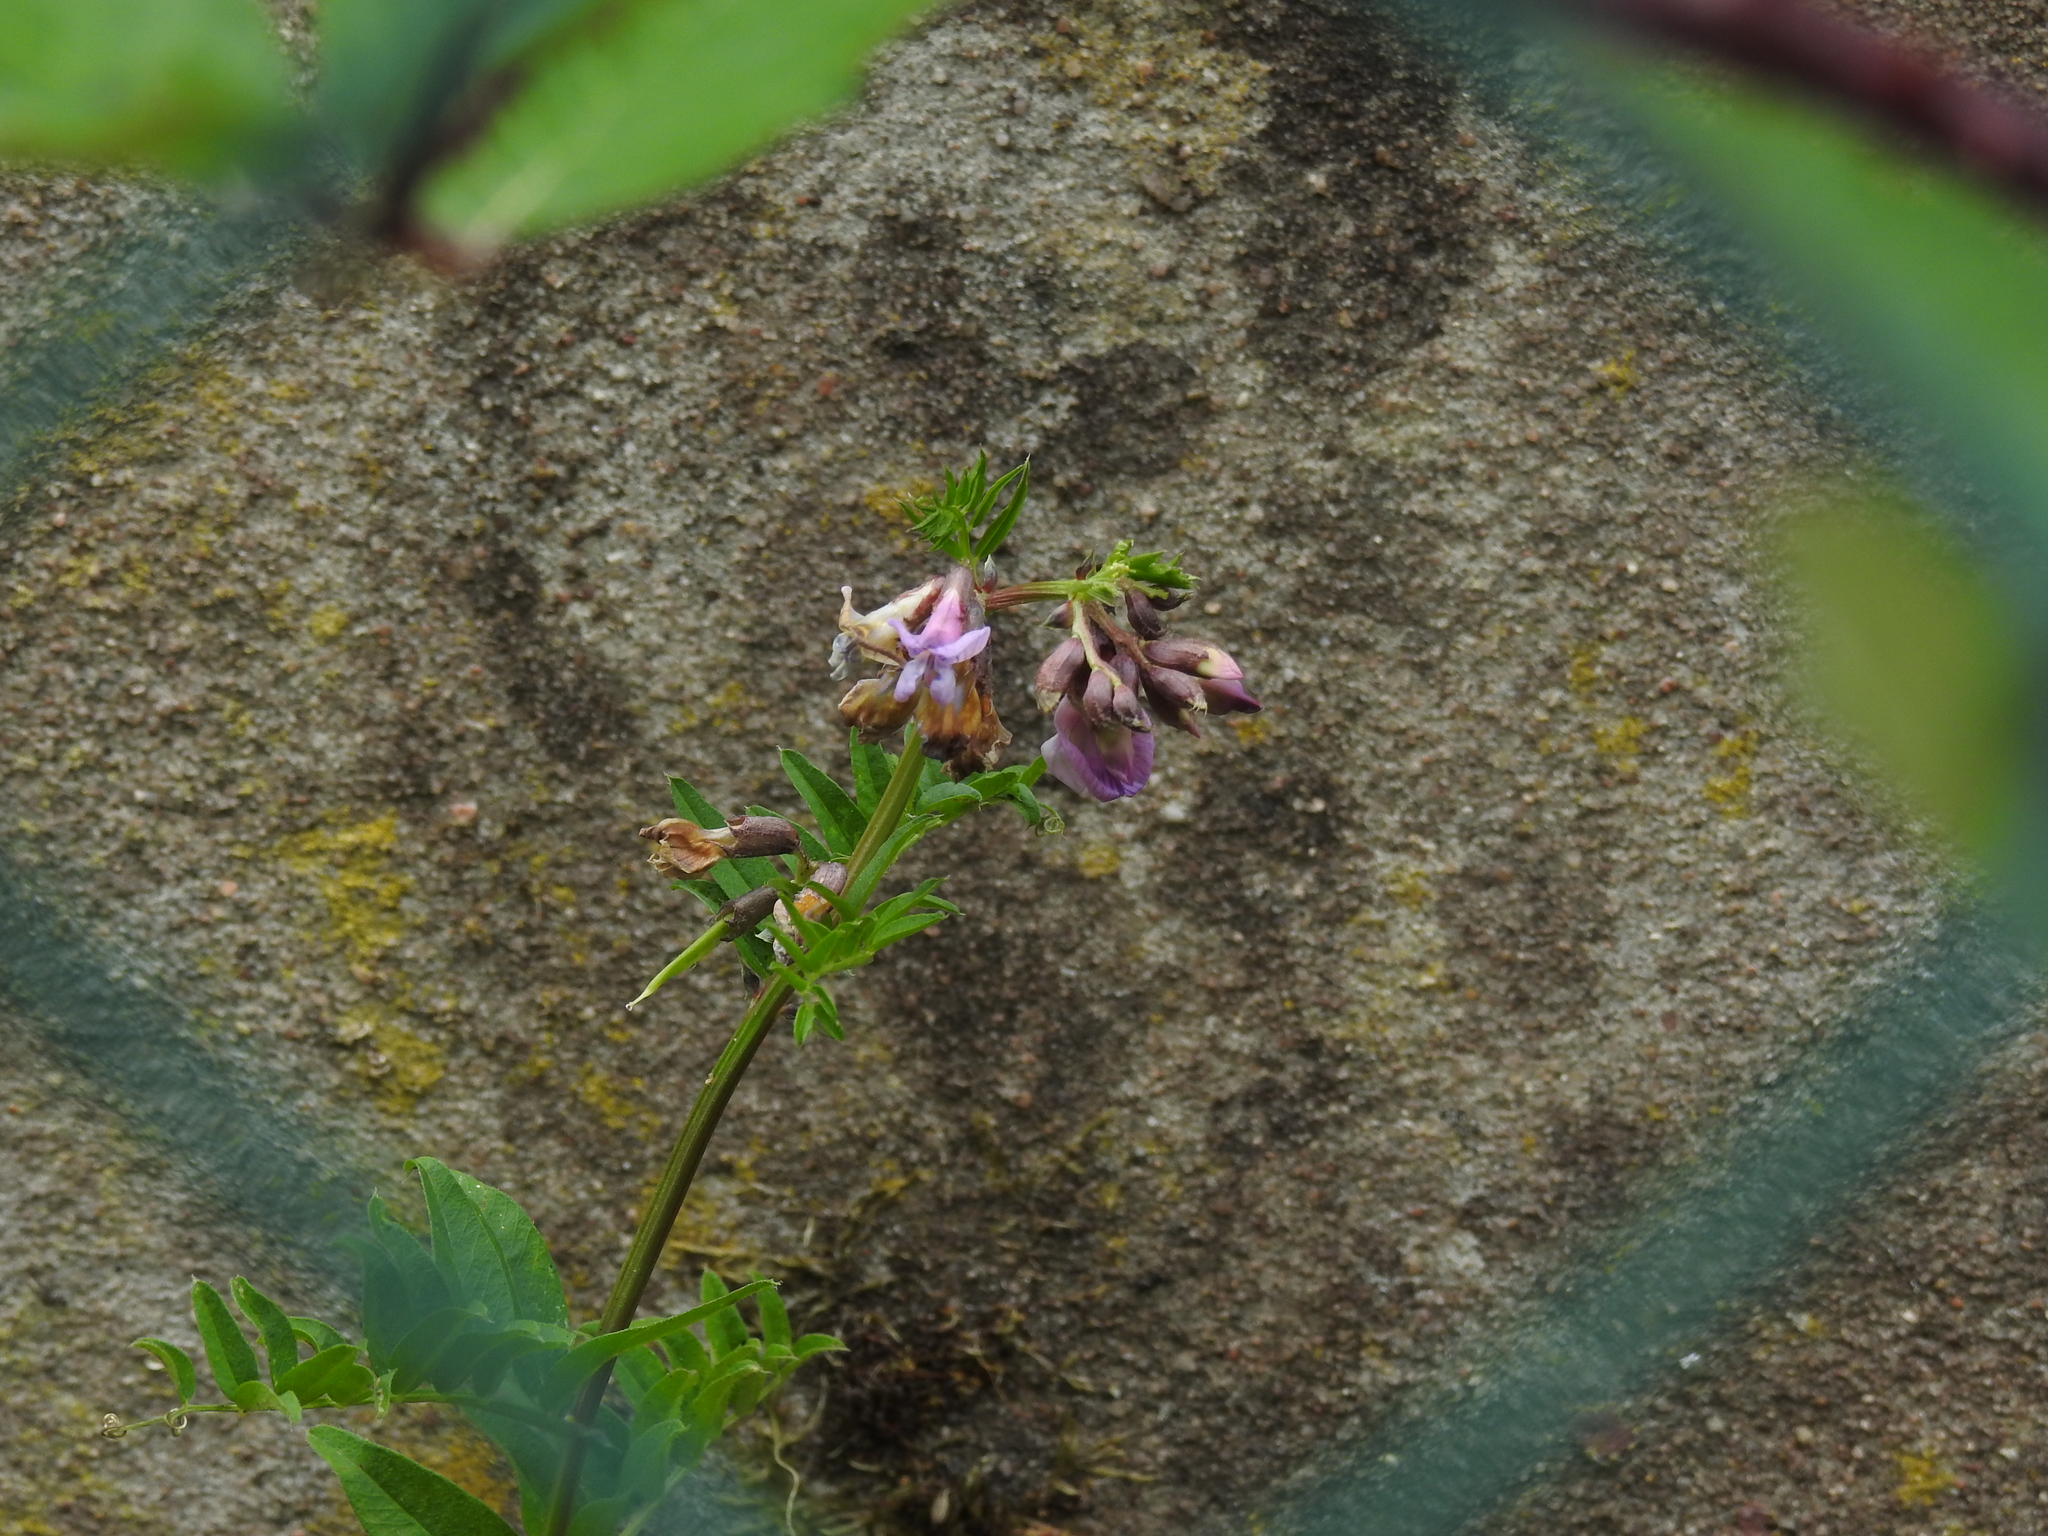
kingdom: Plantae
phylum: Tracheophyta
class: Magnoliopsida
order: Fabales
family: Fabaceae
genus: Vicia
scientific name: Vicia sepium
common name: Bush vetch
